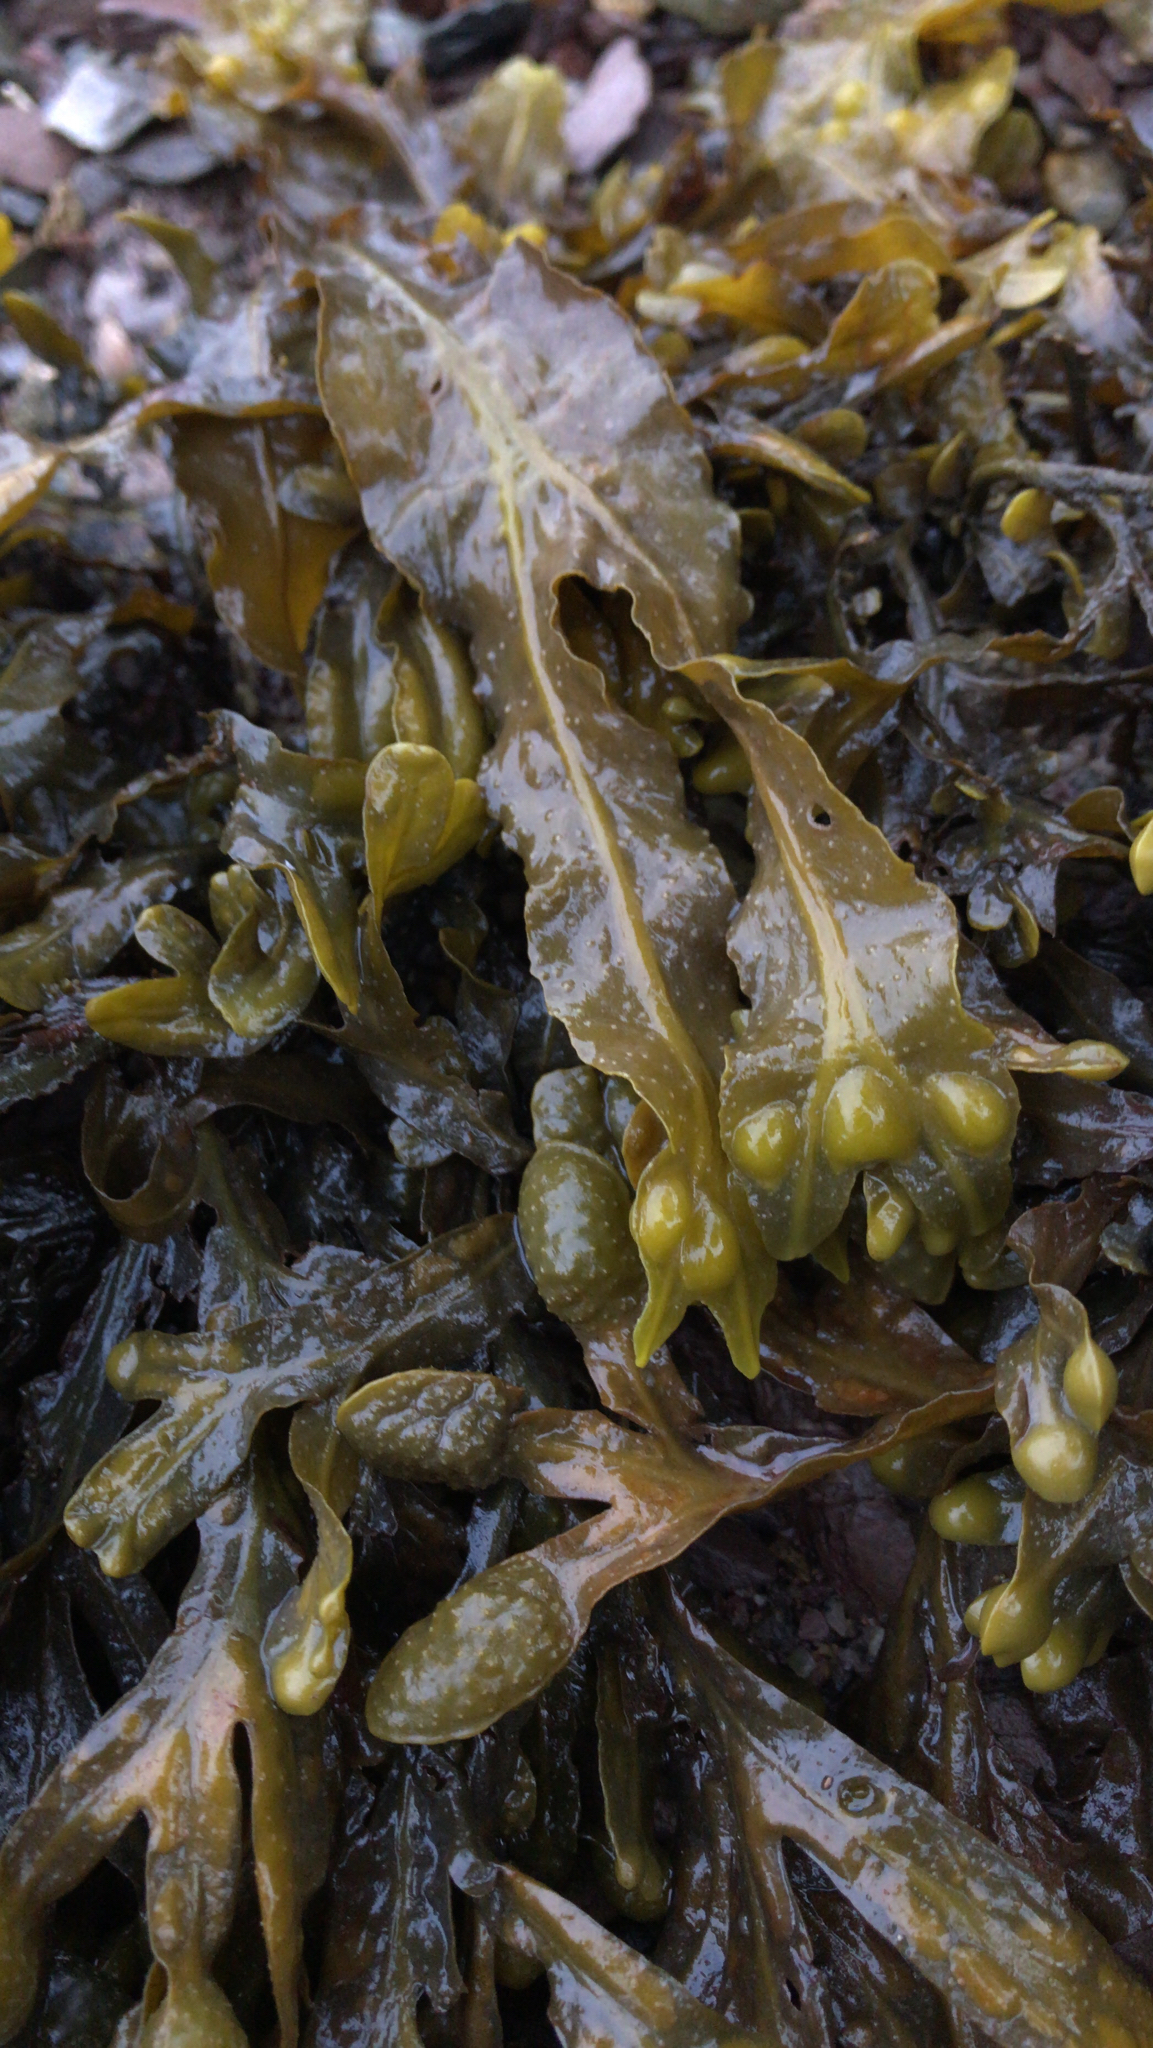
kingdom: Chromista
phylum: Ochrophyta
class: Phaeophyceae
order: Fucales
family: Fucaceae
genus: Fucus
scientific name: Fucus vesiculosus
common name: Bladder wrack
